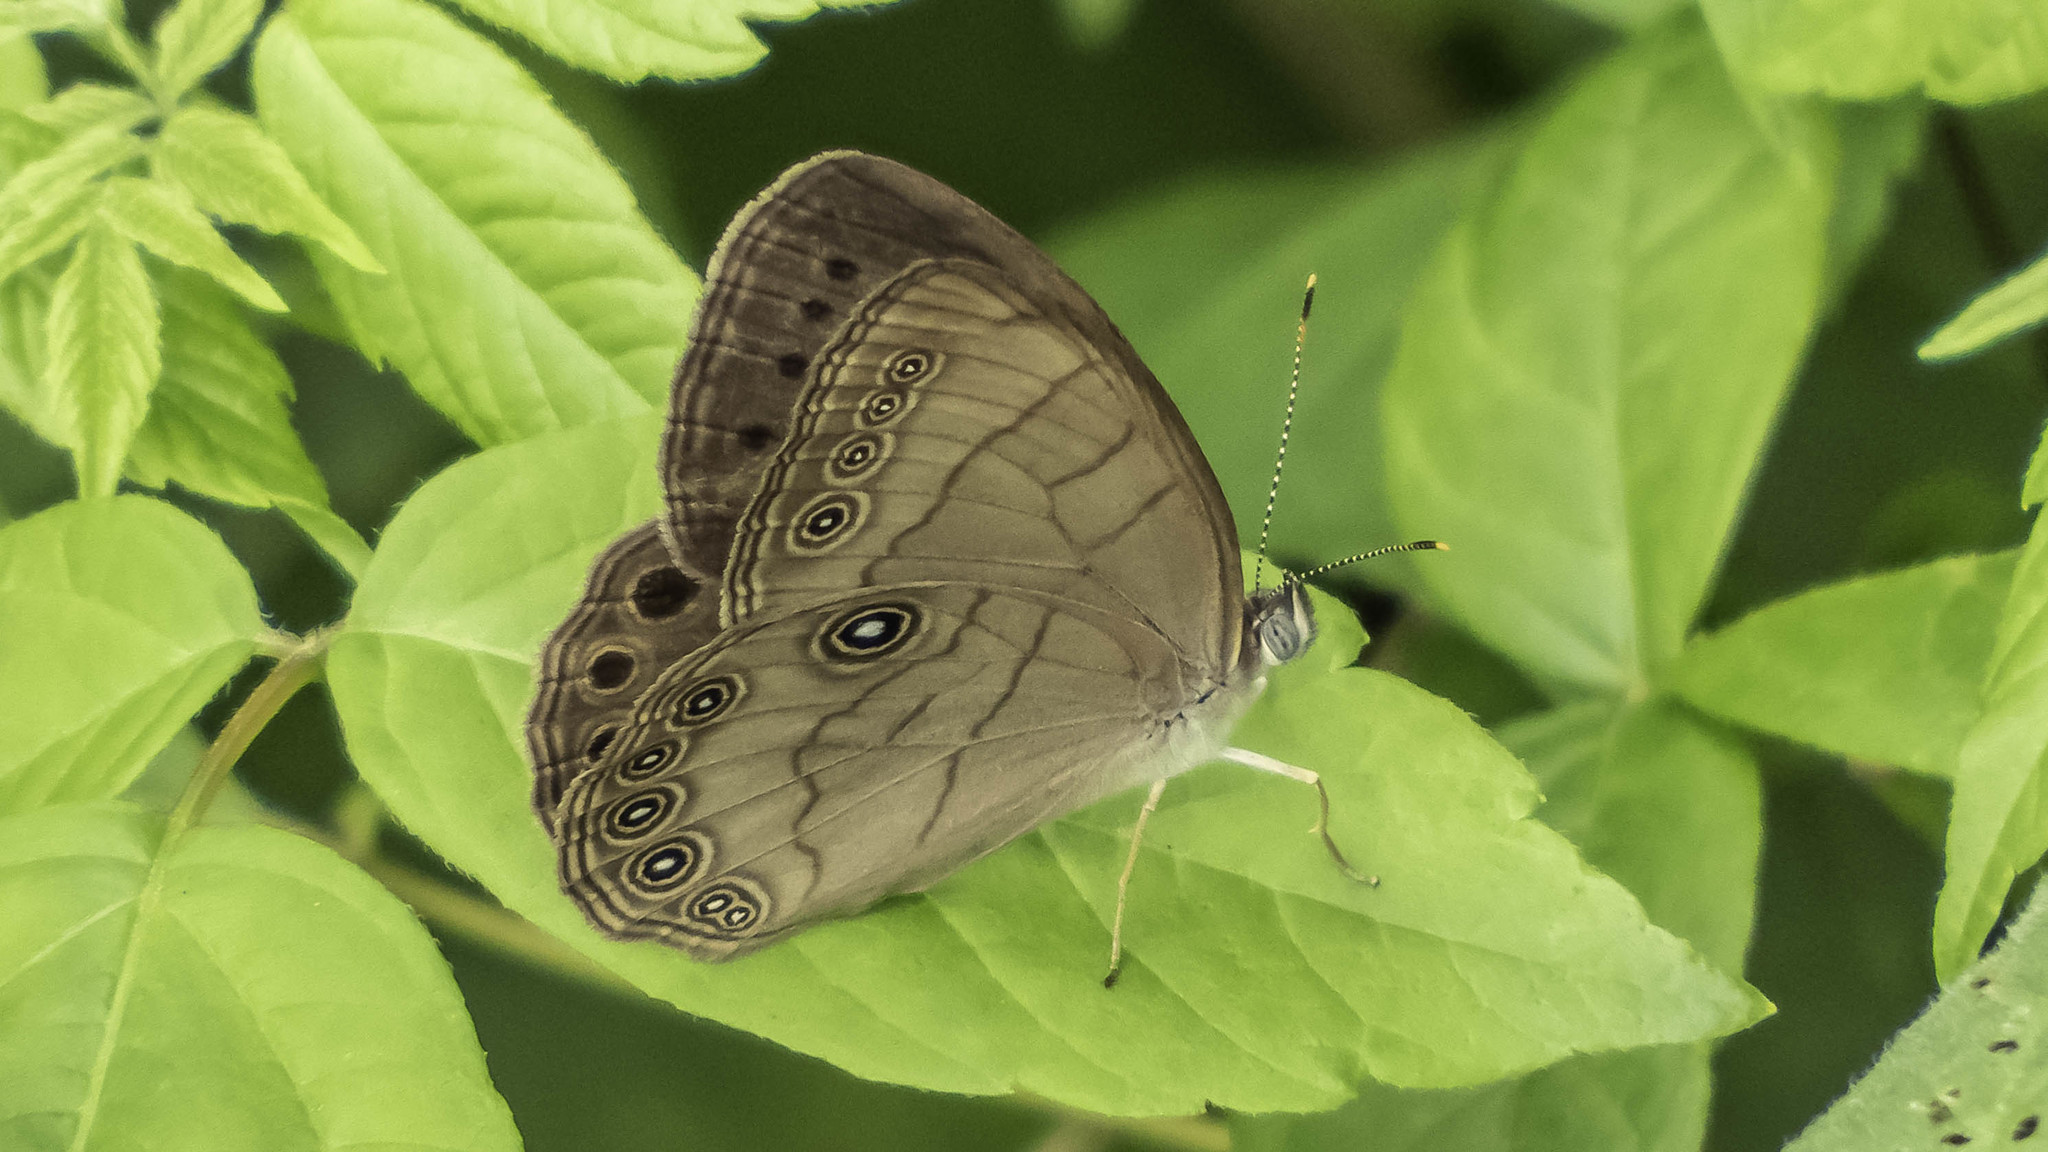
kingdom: Animalia
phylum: Arthropoda
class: Insecta
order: Lepidoptera
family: Nymphalidae
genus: Lethe
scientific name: Lethe eurydice
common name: Eyed brown
